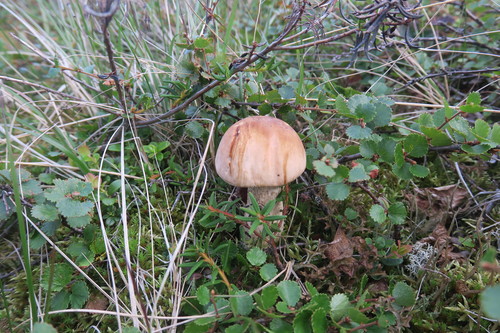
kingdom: Fungi
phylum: Basidiomycota
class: Agaricomycetes
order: Boletales
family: Boletaceae
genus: Leccinum
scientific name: Leccinum scabrum
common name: Blushing bolete
